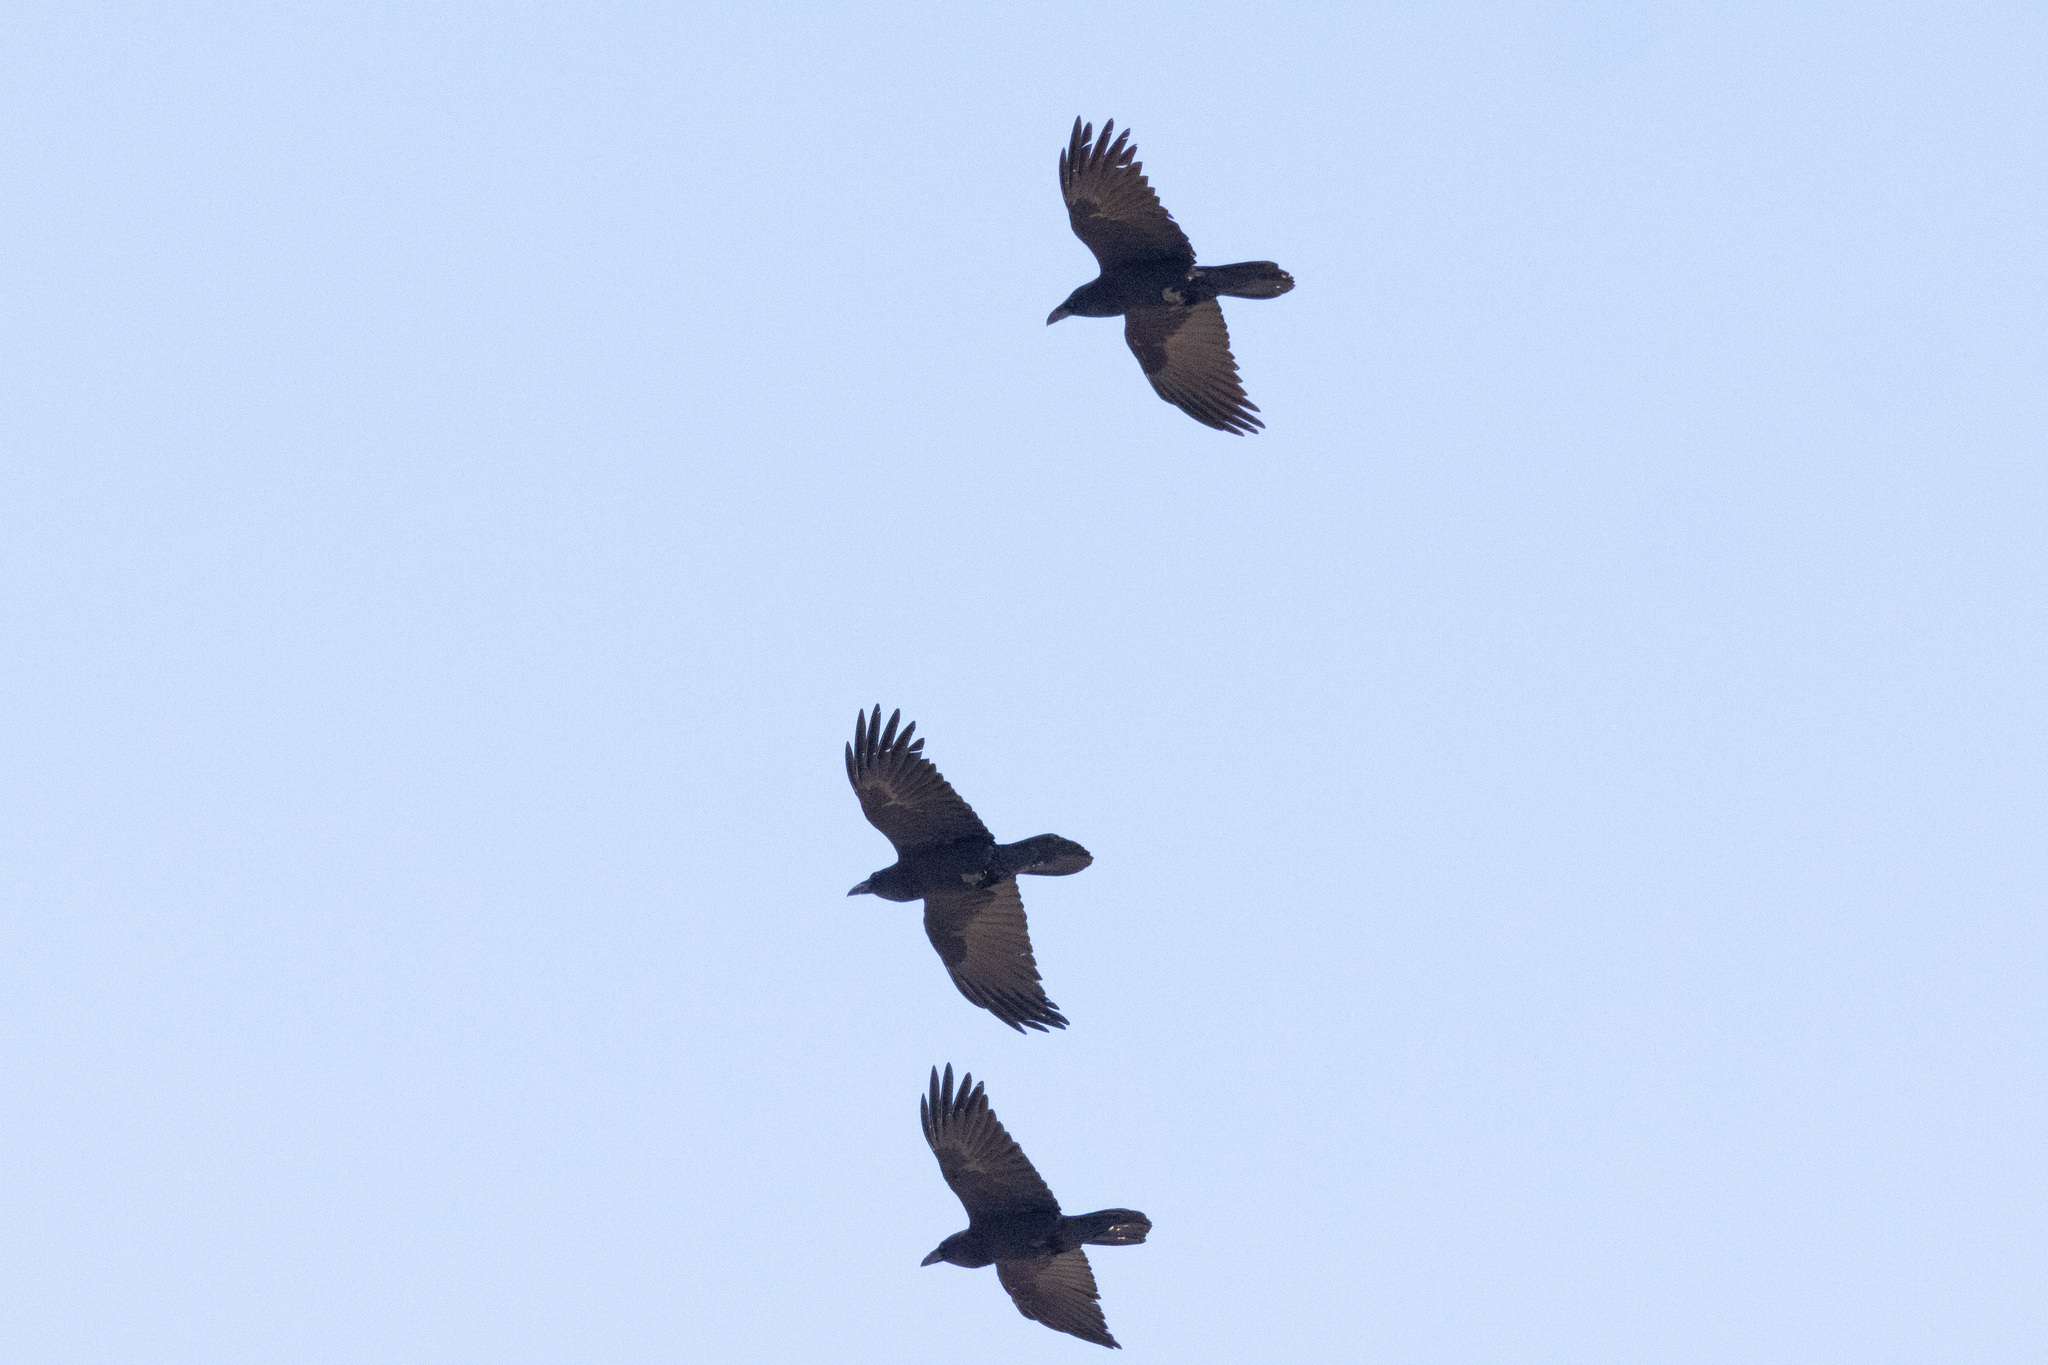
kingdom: Animalia
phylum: Chordata
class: Aves
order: Passeriformes
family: Corvidae
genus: Corvus
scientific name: Corvus corax
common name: Common raven
